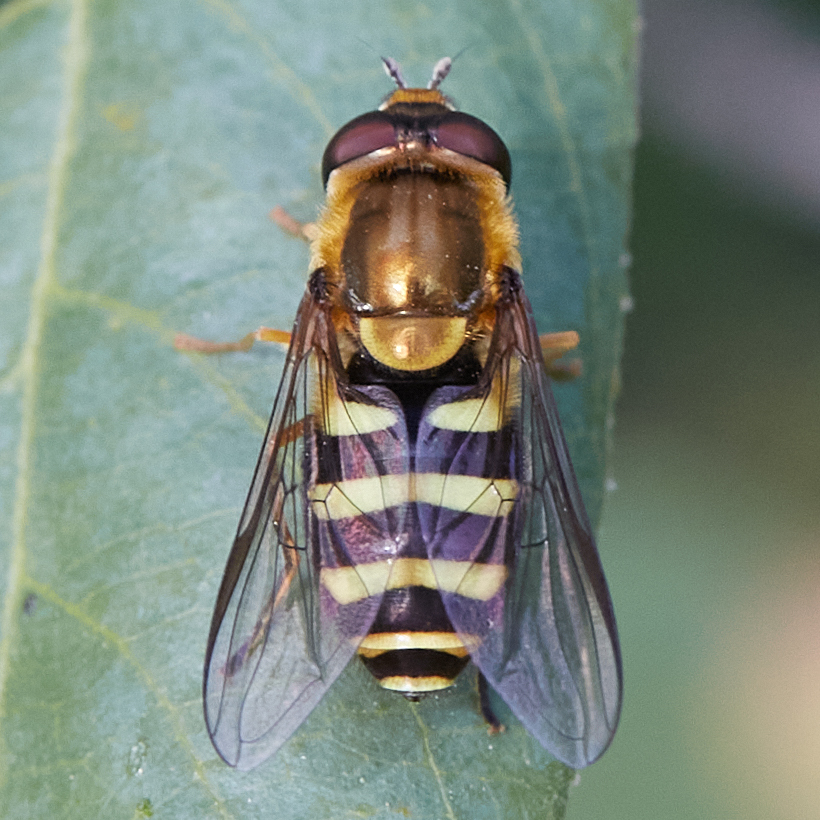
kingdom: Animalia
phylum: Arthropoda
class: Insecta
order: Diptera
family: Syrphidae
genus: Syrphus
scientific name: Syrphus opinator
